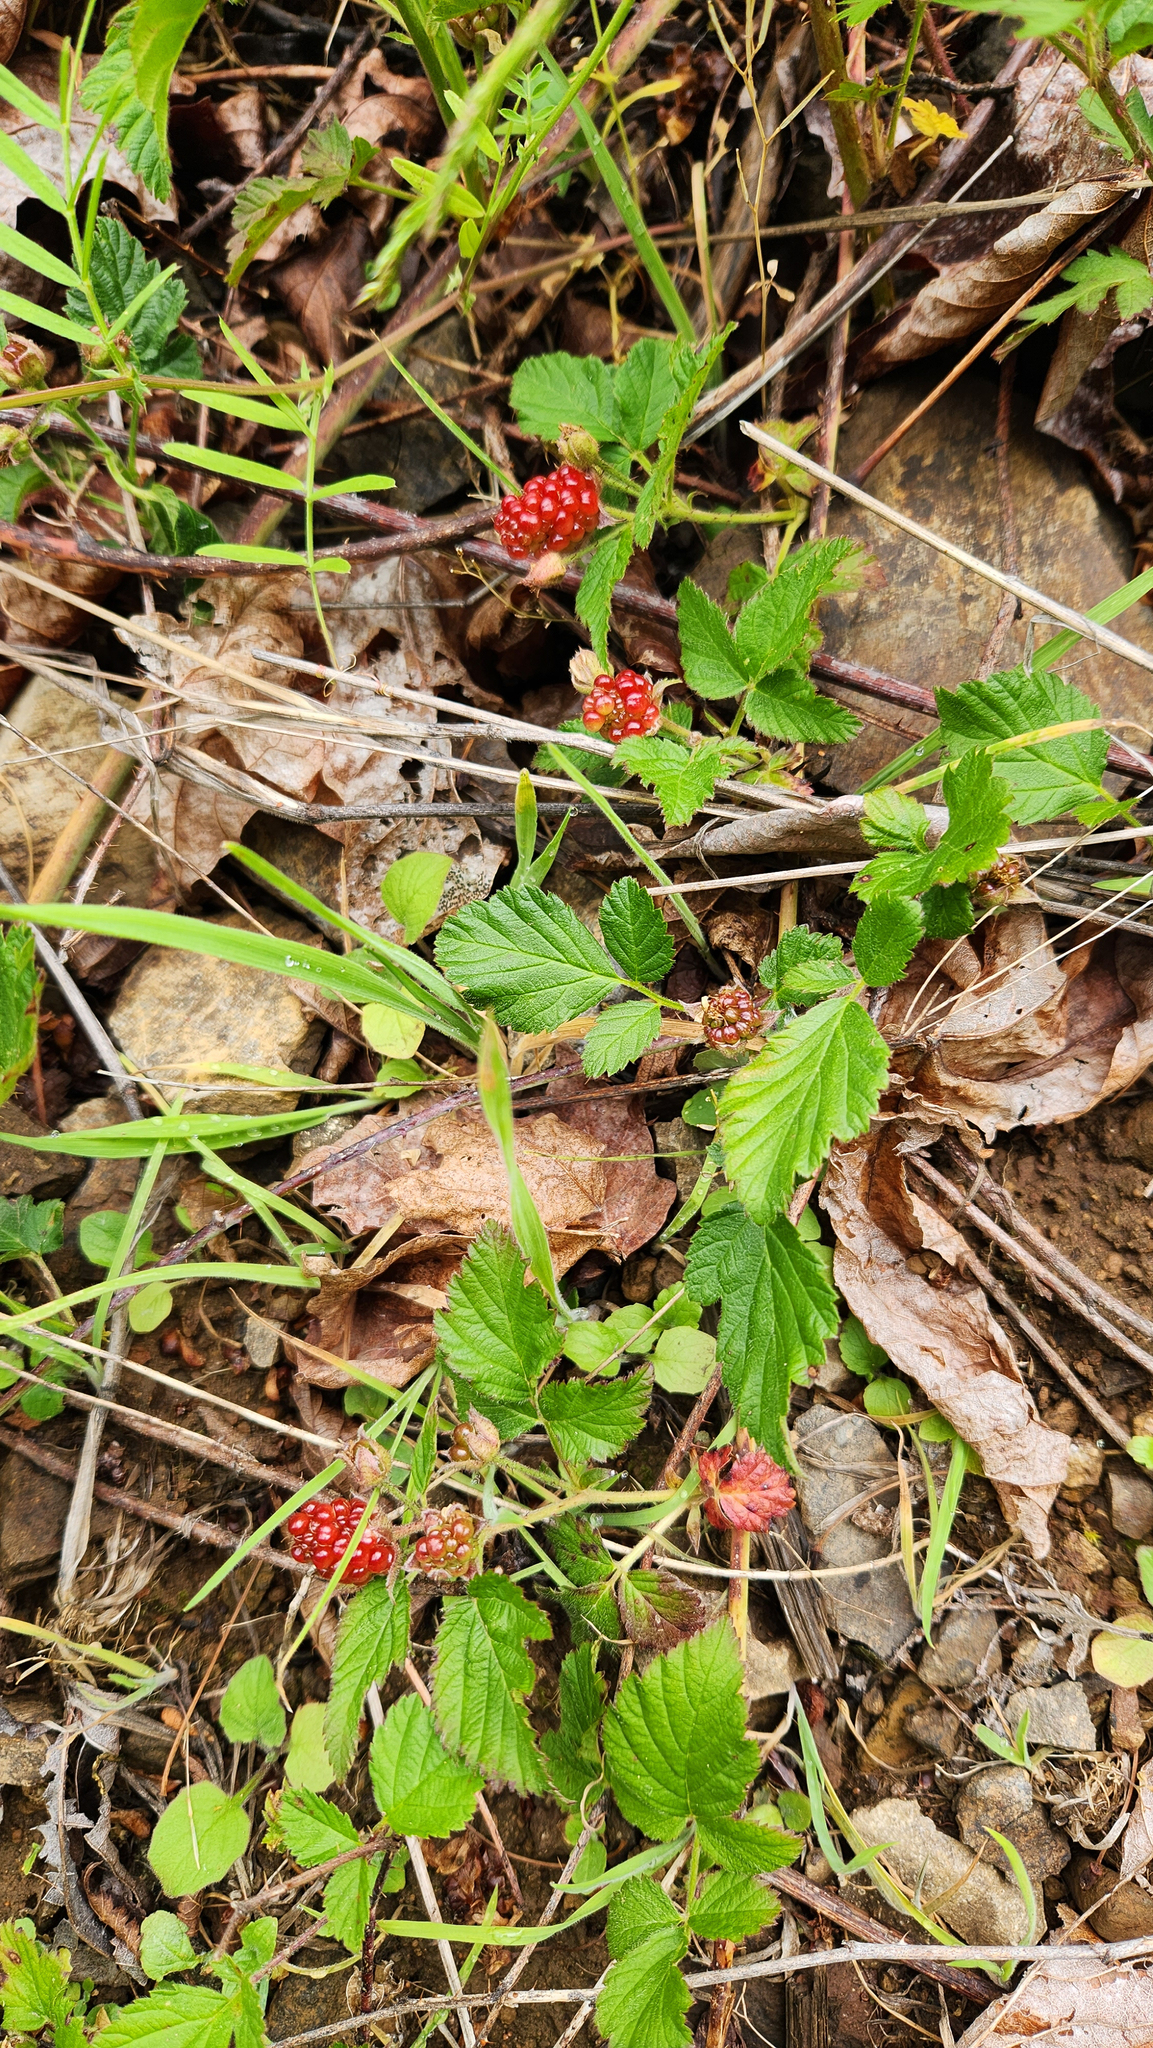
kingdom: Plantae
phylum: Tracheophyta
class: Magnoliopsida
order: Rosales
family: Rosaceae
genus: Rubus
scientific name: Rubus ursinus
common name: Pacific blackberry
